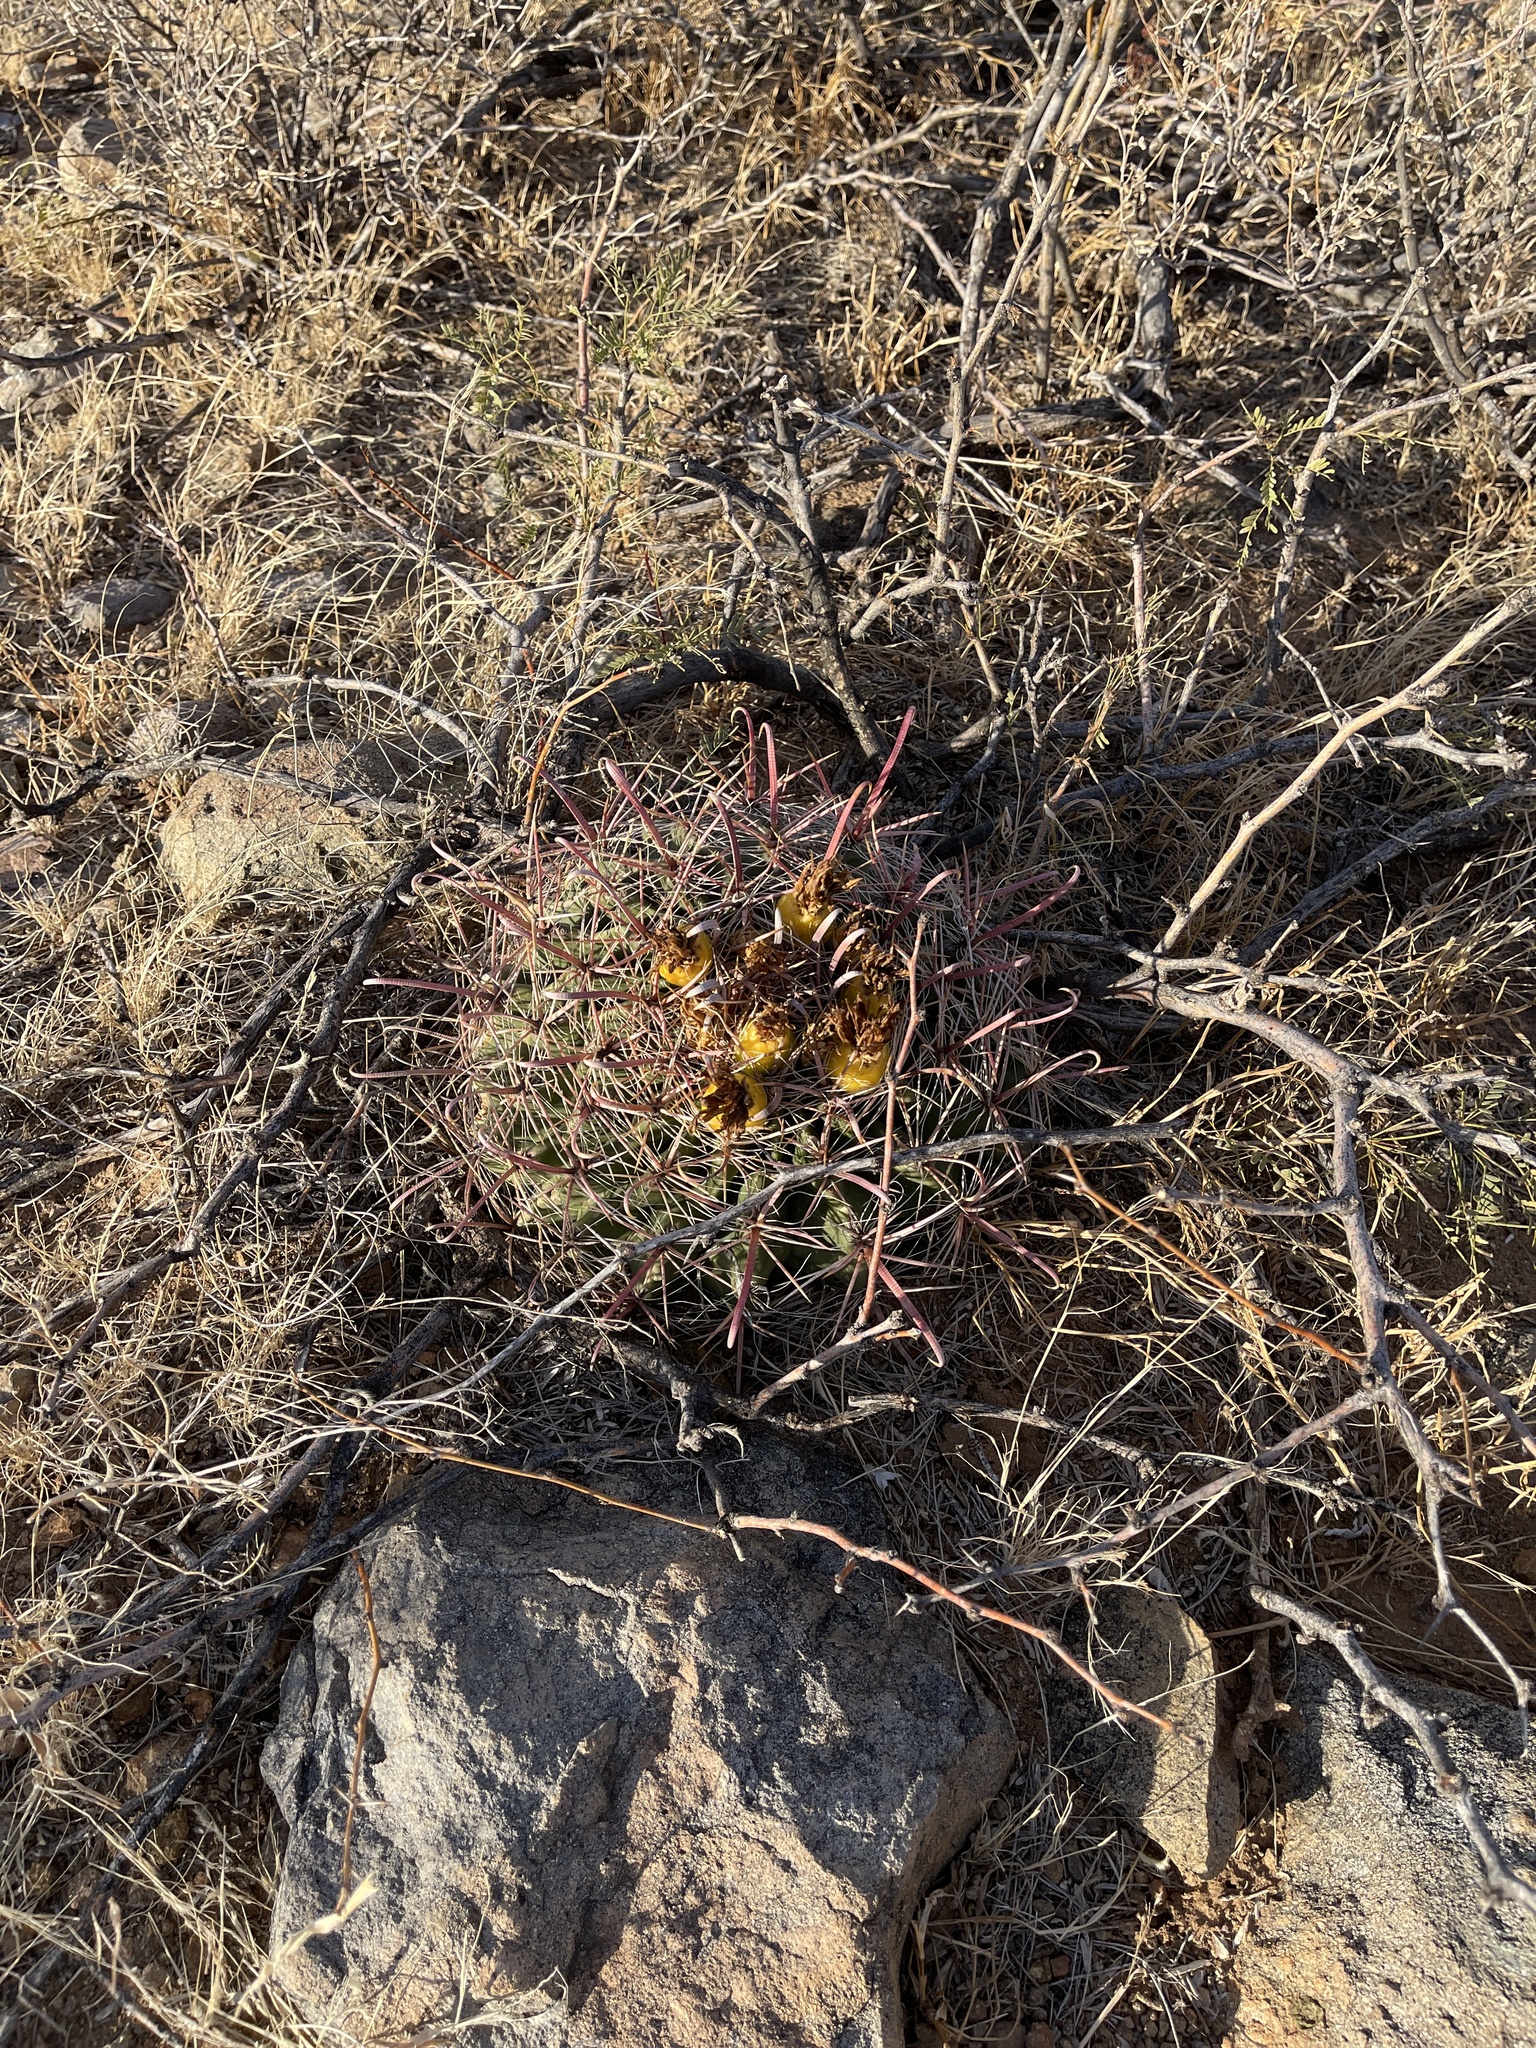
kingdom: Plantae
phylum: Tracheophyta
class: Magnoliopsida
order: Caryophyllales
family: Cactaceae
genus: Ferocactus
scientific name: Ferocactus wislizeni
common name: Candy barrel cactus
